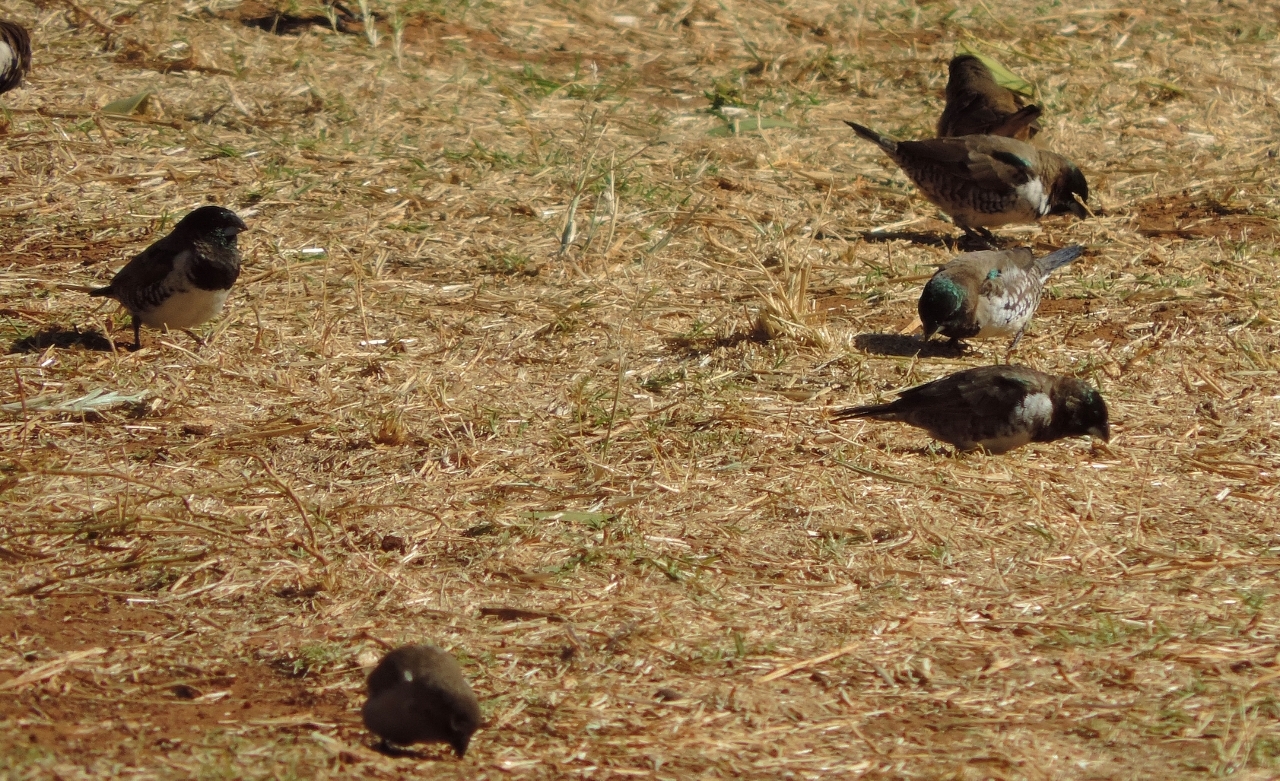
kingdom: Animalia
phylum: Chordata
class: Aves
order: Passeriformes
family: Estrildidae
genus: Lonchura
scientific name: Lonchura cucullata
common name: Bronze mannikin
